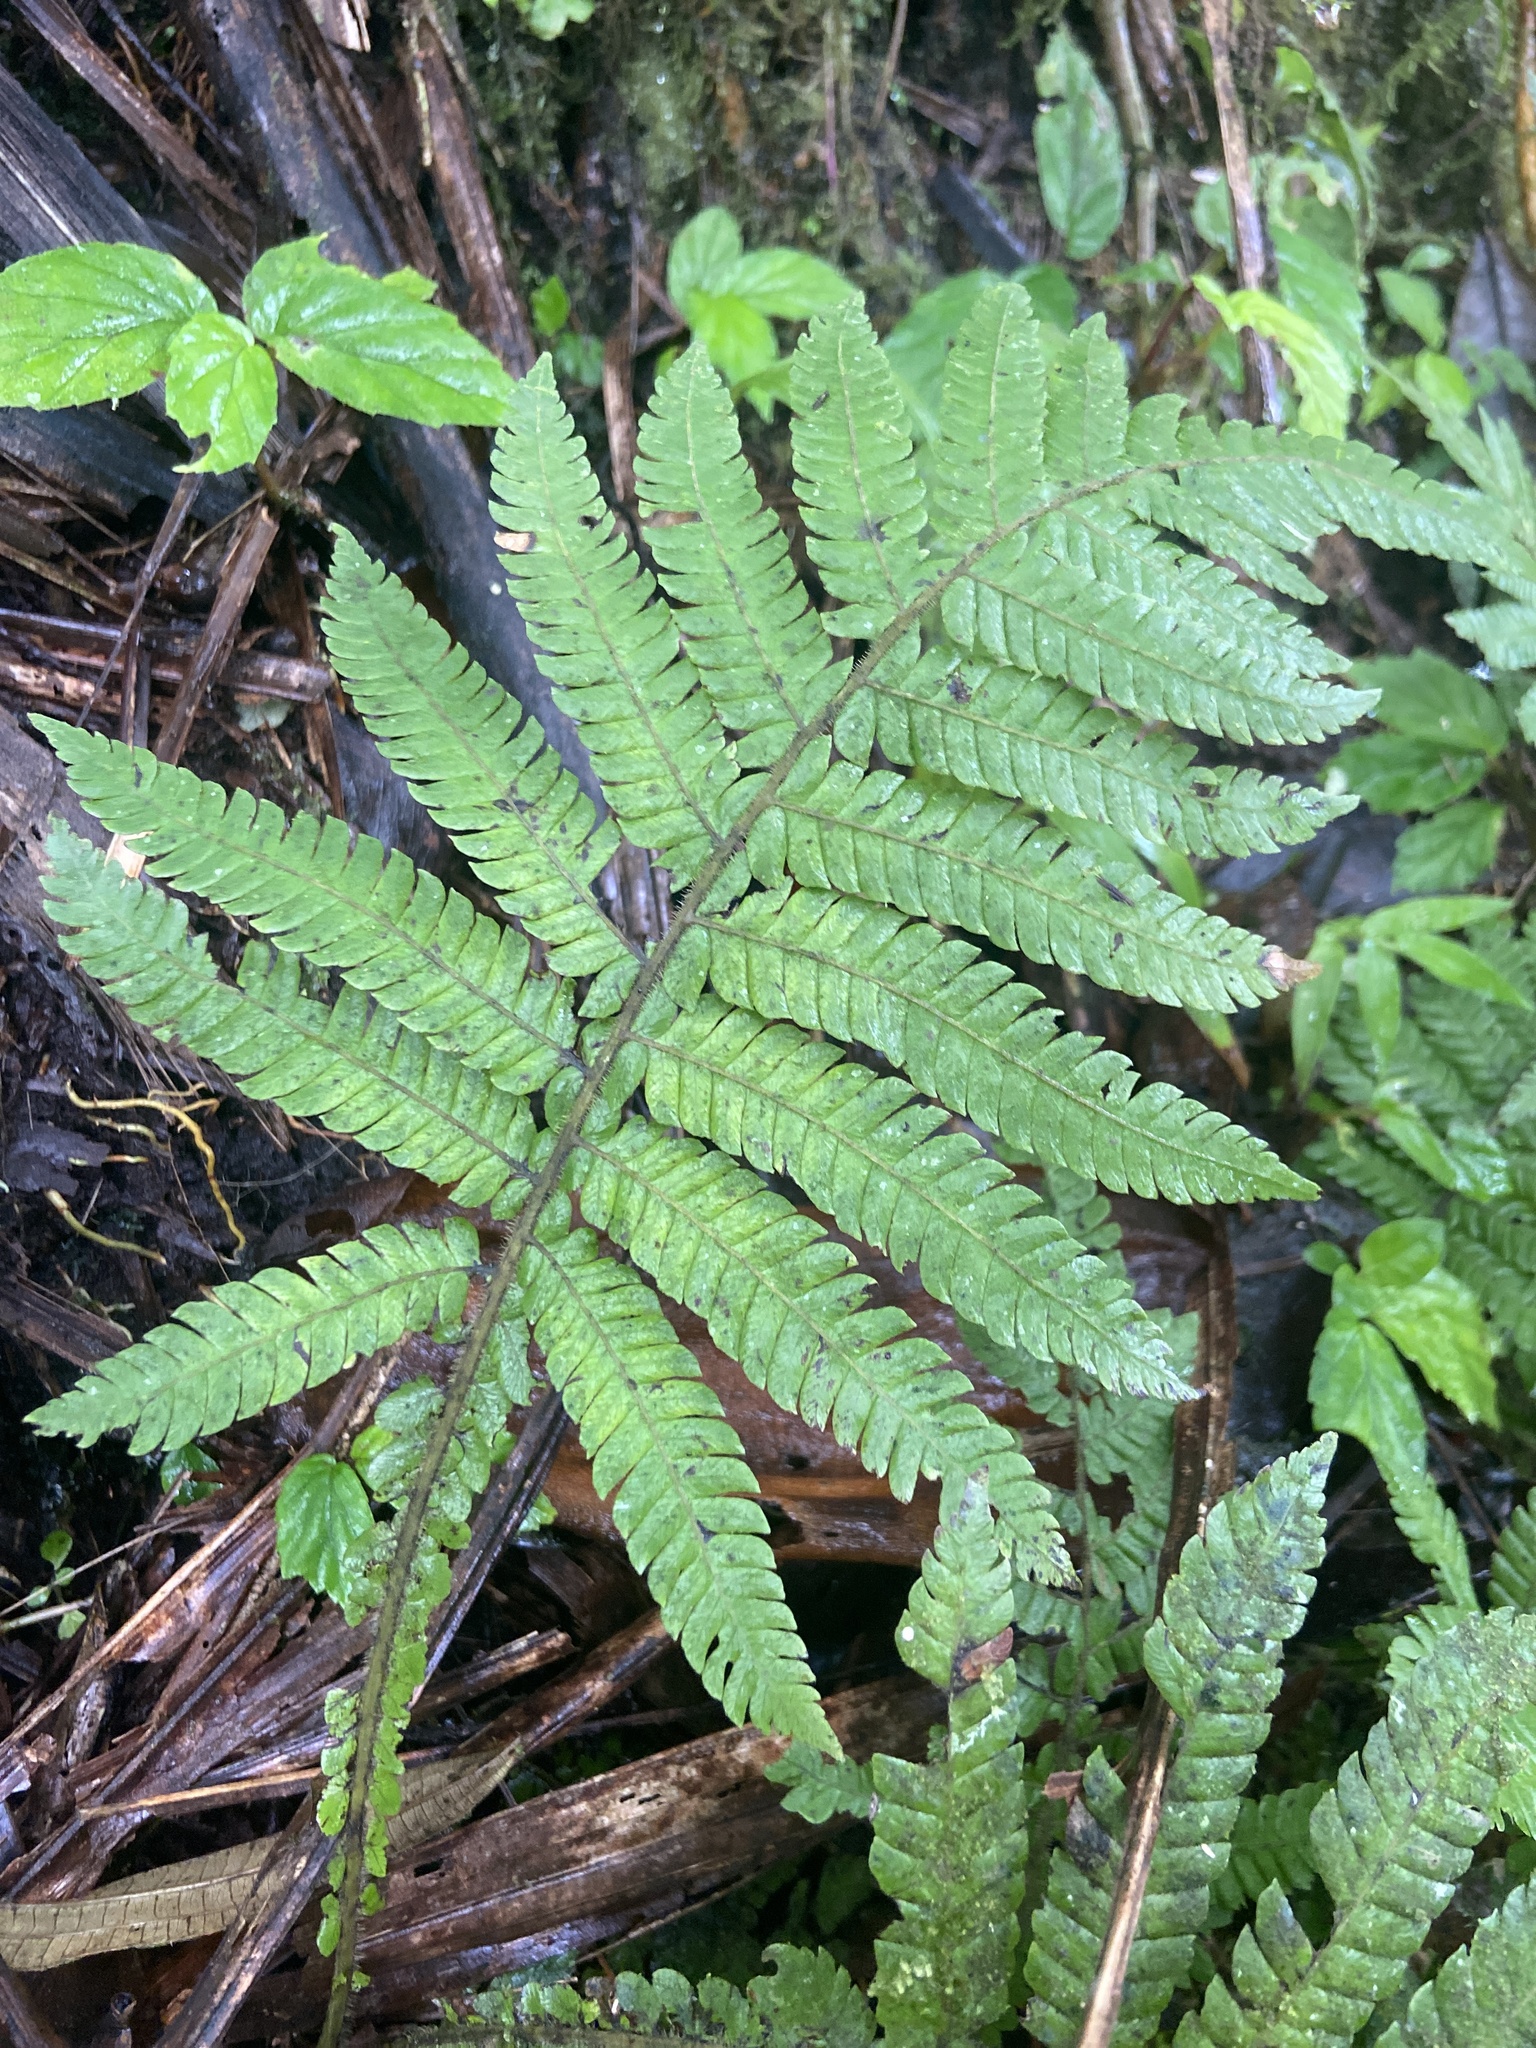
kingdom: Plantae
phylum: Tracheophyta
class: Polypodiopsida
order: Polypodiales
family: Thelypteridaceae
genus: Steiropteris
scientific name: Steiropteris deltoidea
